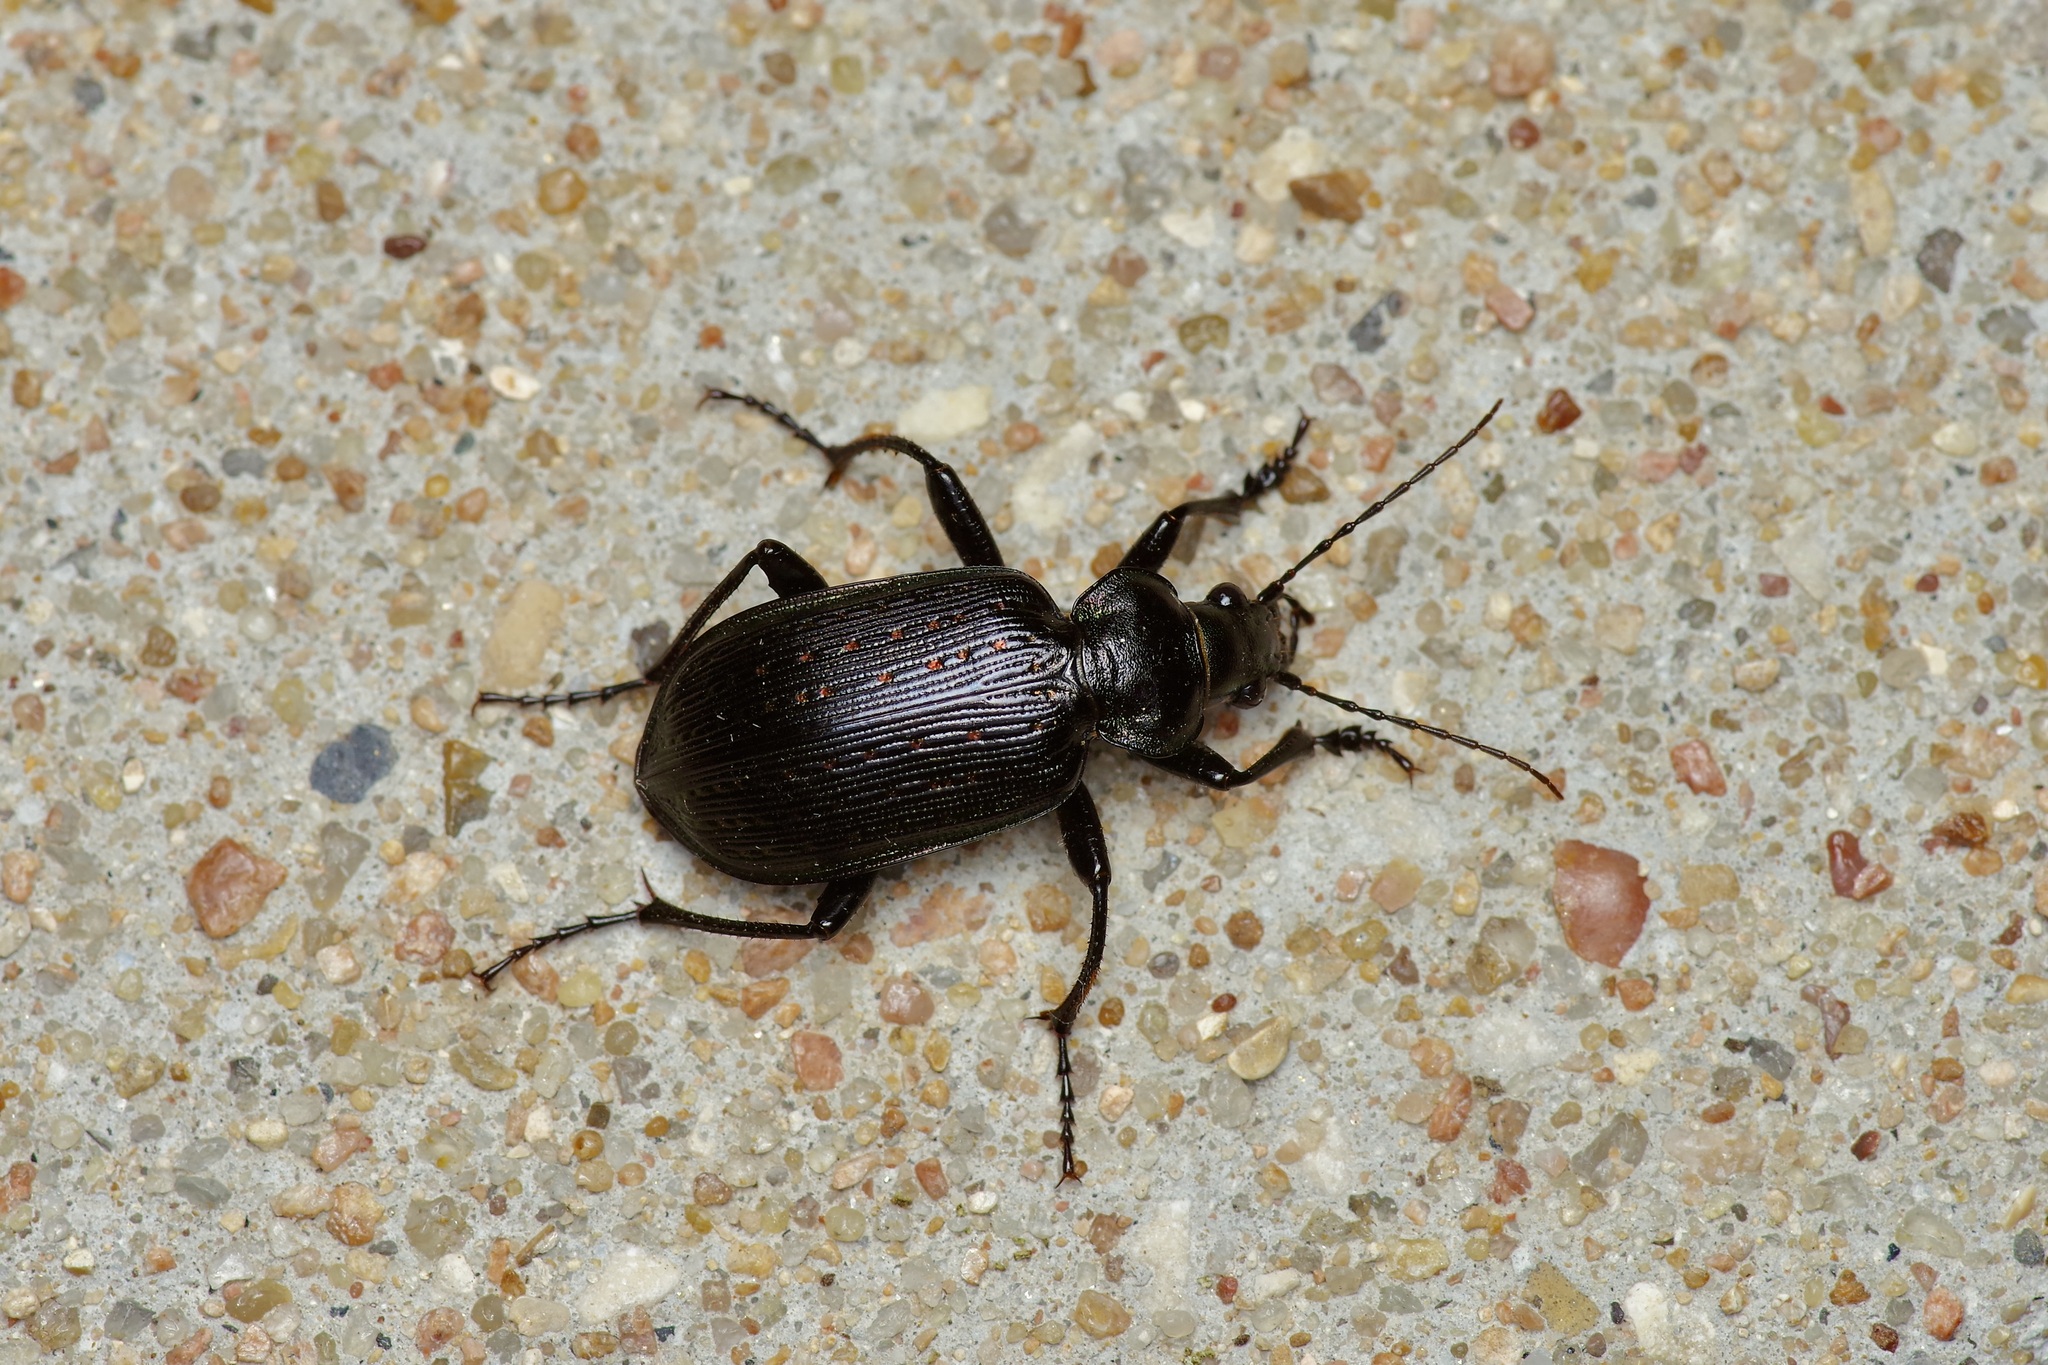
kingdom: Animalia
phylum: Arthropoda
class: Insecta
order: Coleoptera
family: Carabidae
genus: Calosoma
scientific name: Calosoma sayi
